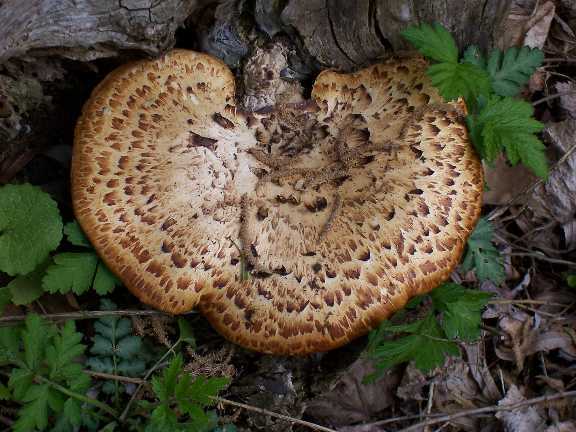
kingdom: Fungi
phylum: Basidiomycota
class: Agaricomycetes
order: Polyporales
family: Polyporaceae
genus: Cerioporus
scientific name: Cerioporus squamosus
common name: Dryad's saddle
